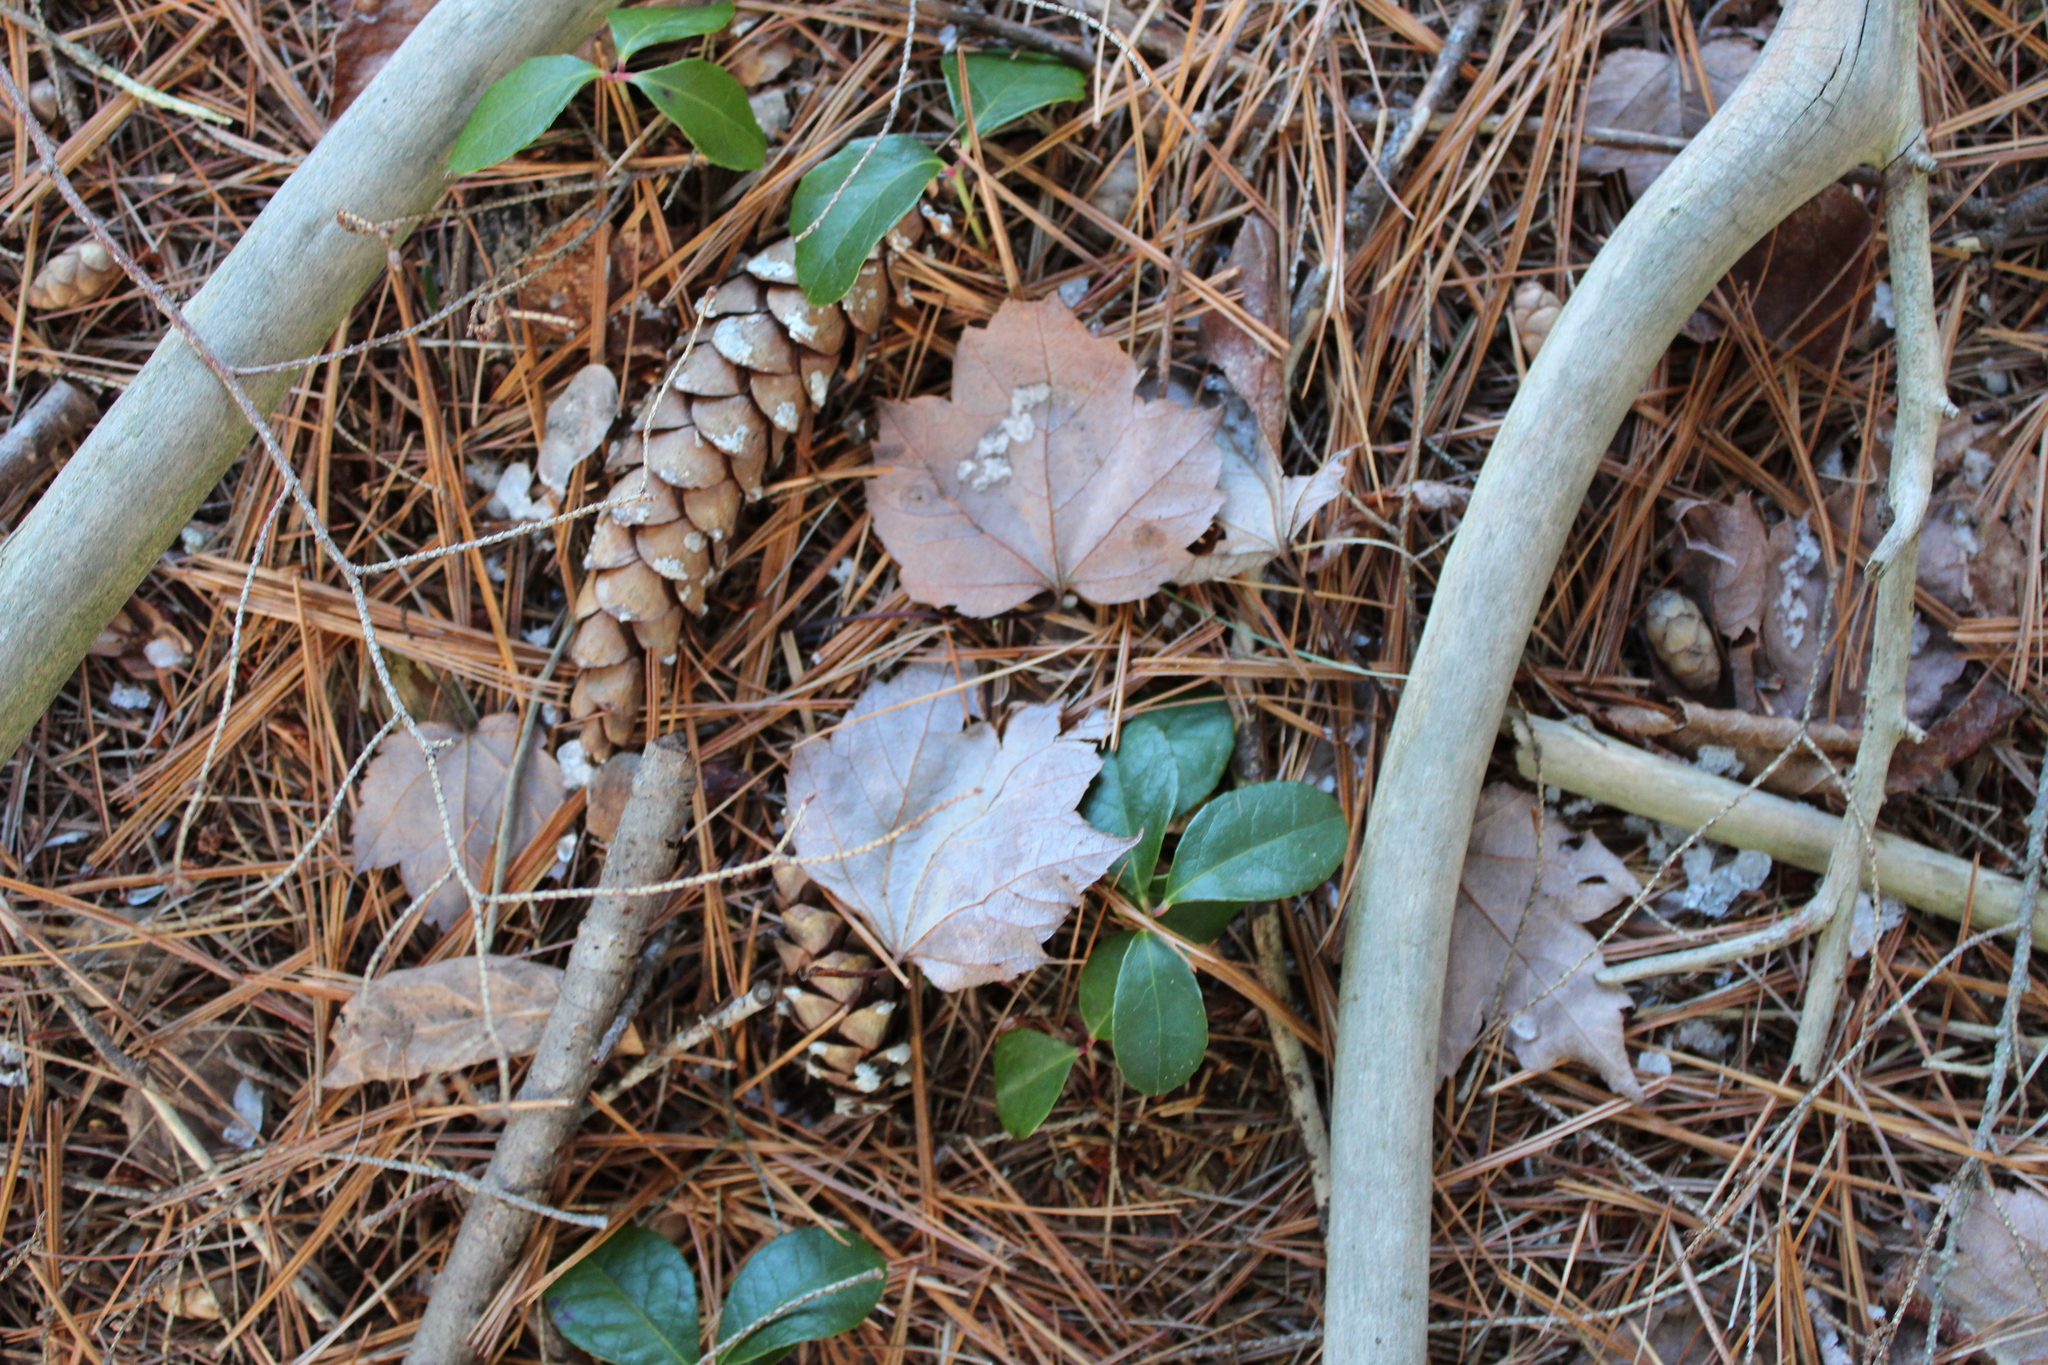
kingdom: Plantae
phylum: Tracheophyta
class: Pinopsida
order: Pinales
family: Pinaceae
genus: Tsuga
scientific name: Tsuga canadensis
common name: Eastern hemlock
